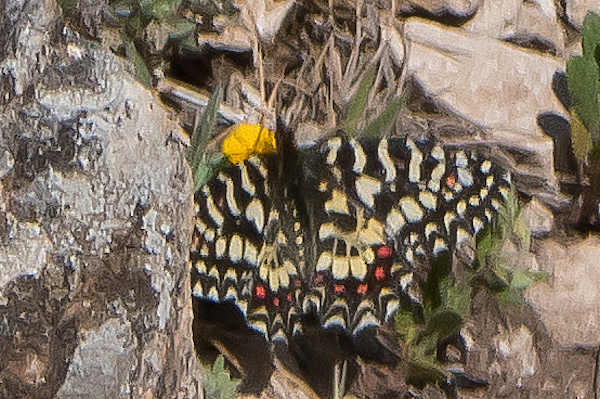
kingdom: Animalia
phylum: Arthropoda
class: Insecta
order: Lepidoptera
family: Papilionidae
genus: Zerynthia
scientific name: Zerynthia rumina
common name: Spanish festoon
